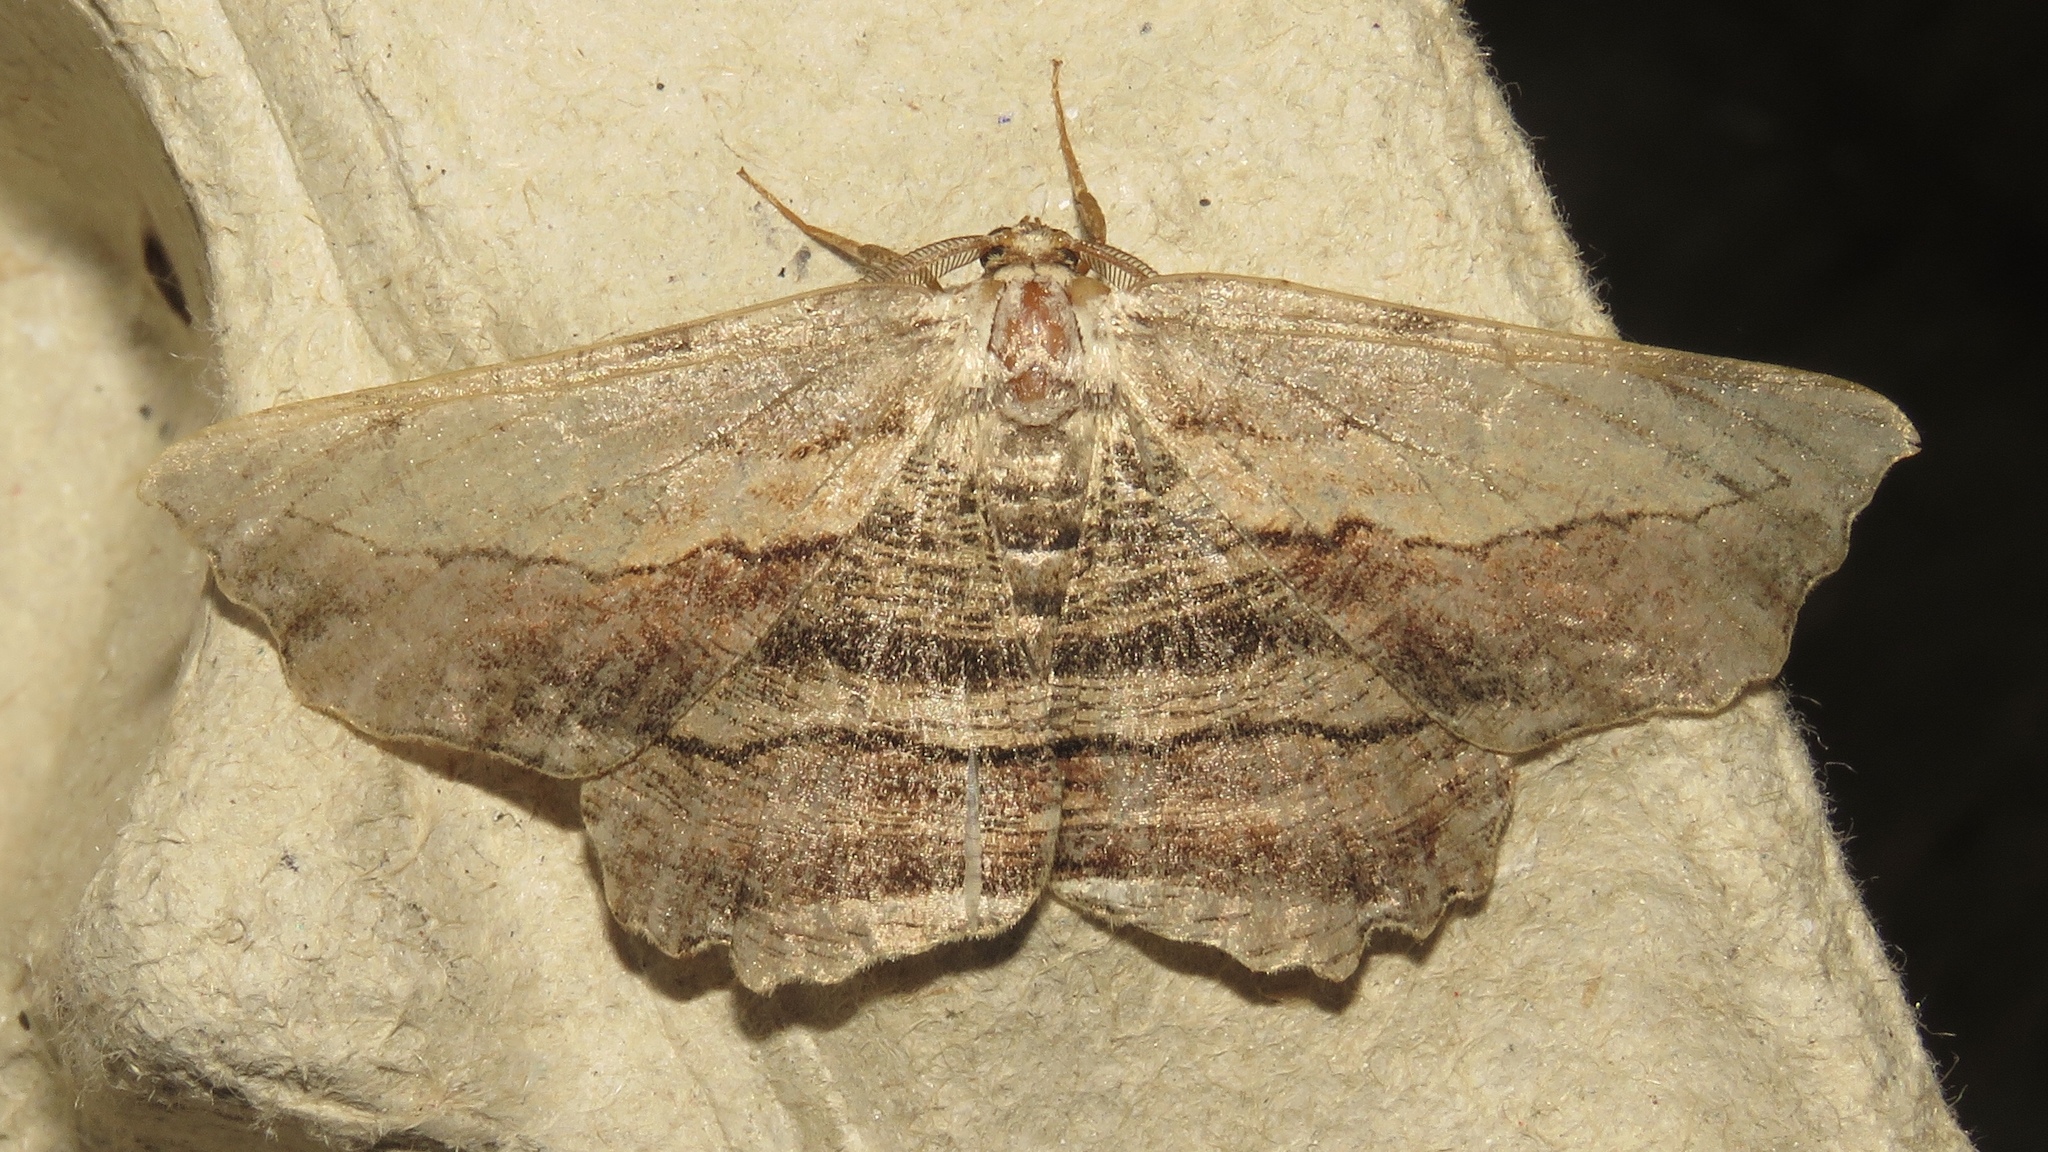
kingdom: Animalia
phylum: Arthropoda
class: Insecta
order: Lepidoptera
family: Geometridae
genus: Lytrosis
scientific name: Lytrosis unitaria
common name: Common lytrosis
